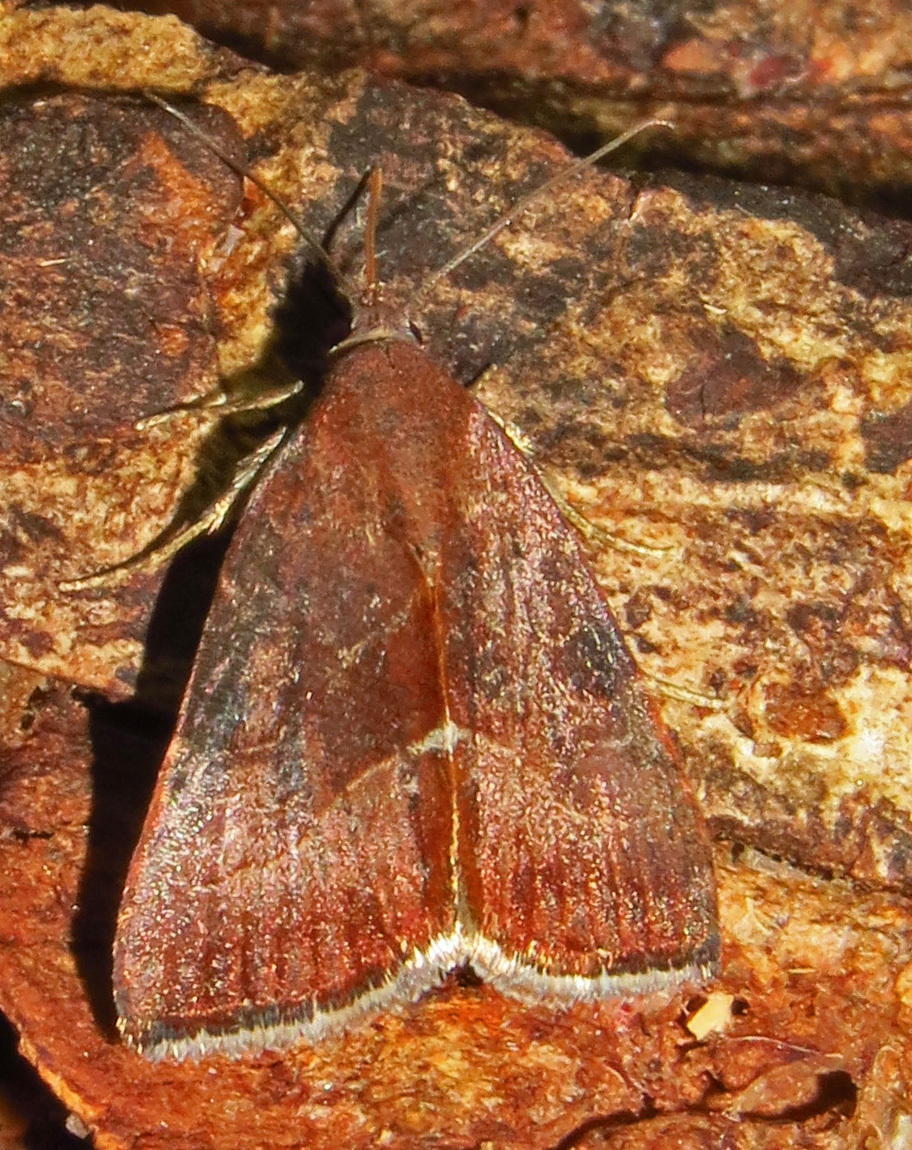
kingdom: Animalia
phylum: Arthropoda
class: Insecta
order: Lepidoptera
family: Noctuidae
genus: Galgula
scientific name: Galgula partita
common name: Wedgeling
